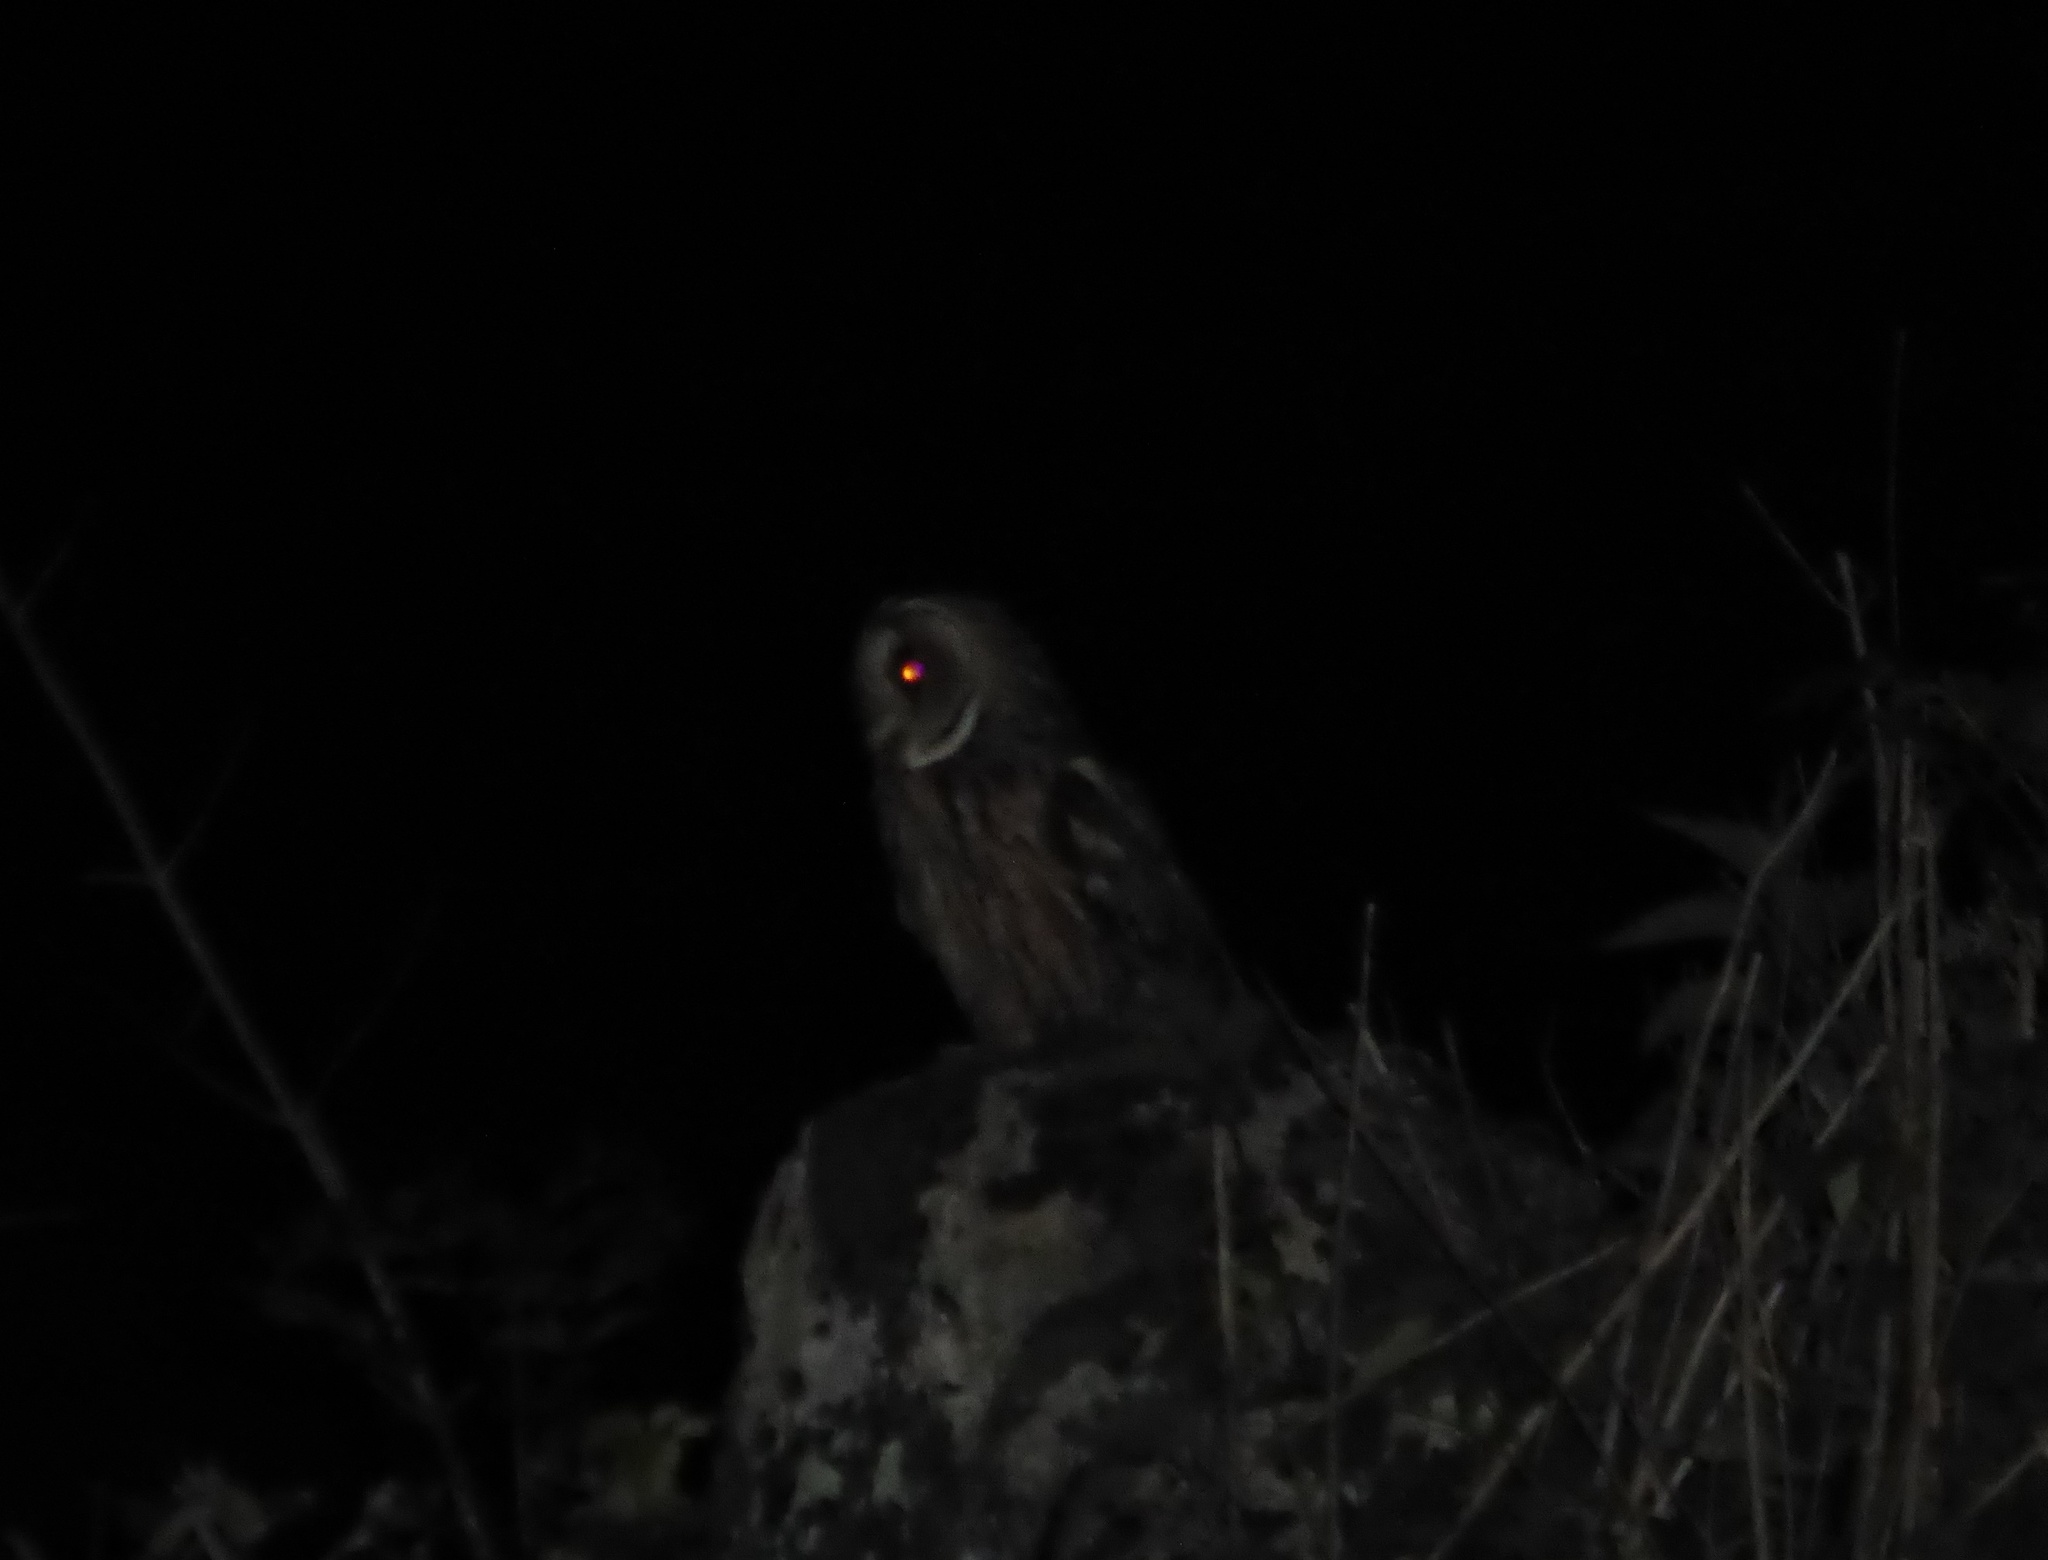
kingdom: Animalia
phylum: Chordata
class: Aves
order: Strigiformes
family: Strigidae
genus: Asio
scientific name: Asio otus
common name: Long-eared owl
